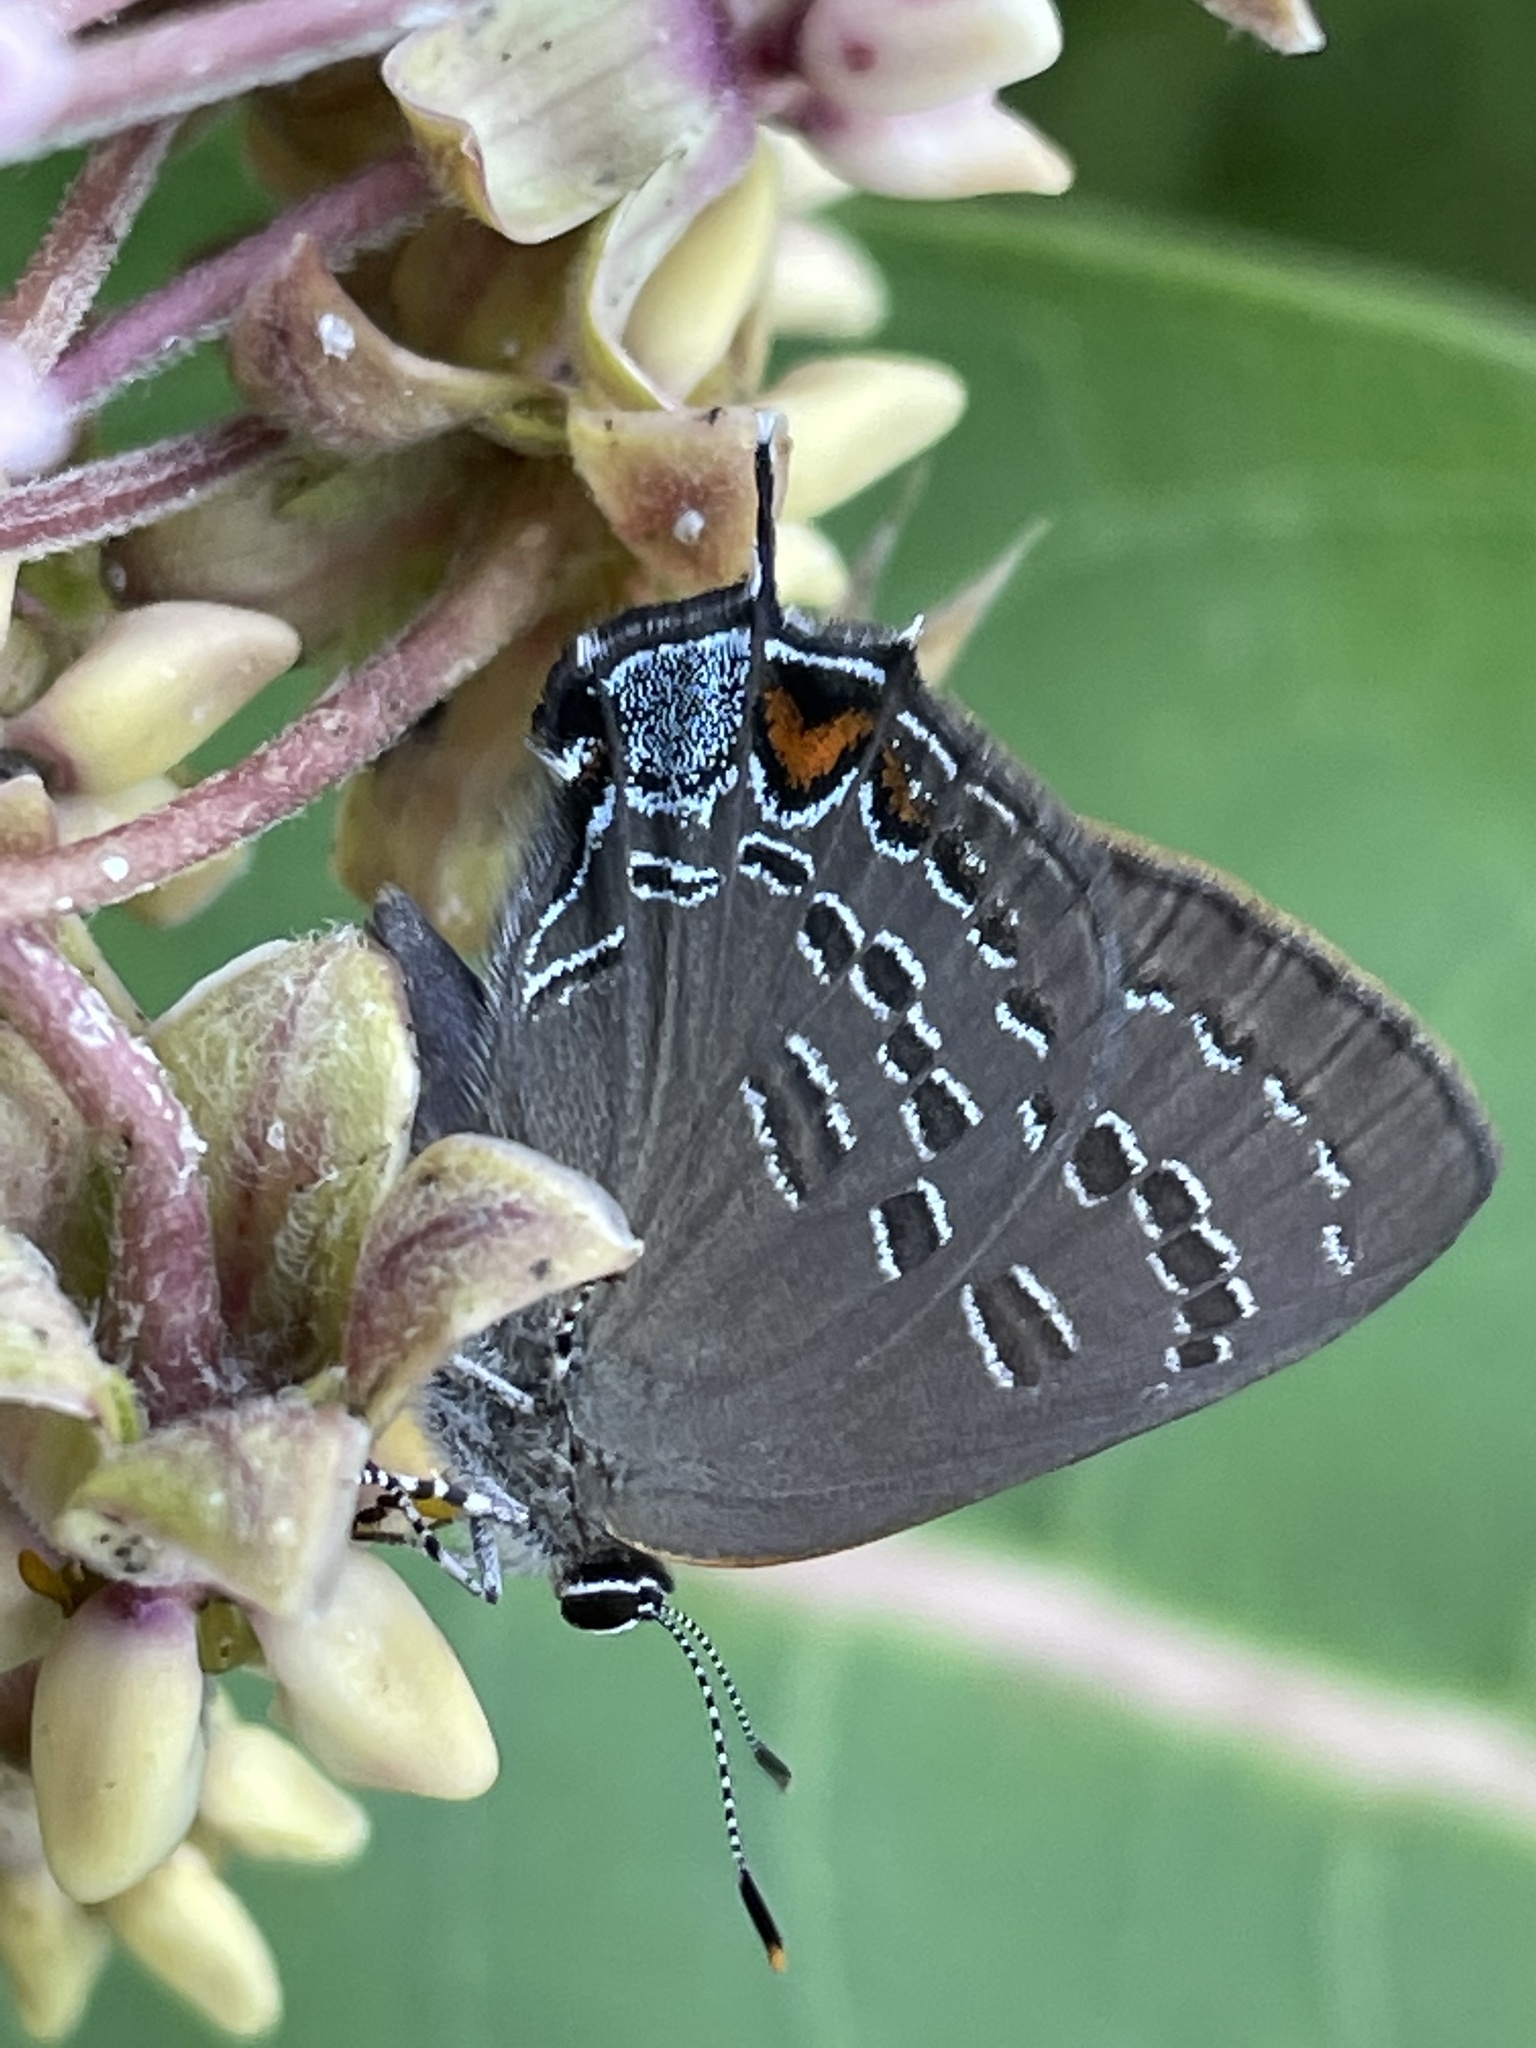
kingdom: Animalia
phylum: Arthropoda
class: Insecta
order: Lepidoptera
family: Lycaenidae
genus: Satyrium
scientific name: Satyrium calanus
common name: Banded hairstreak
